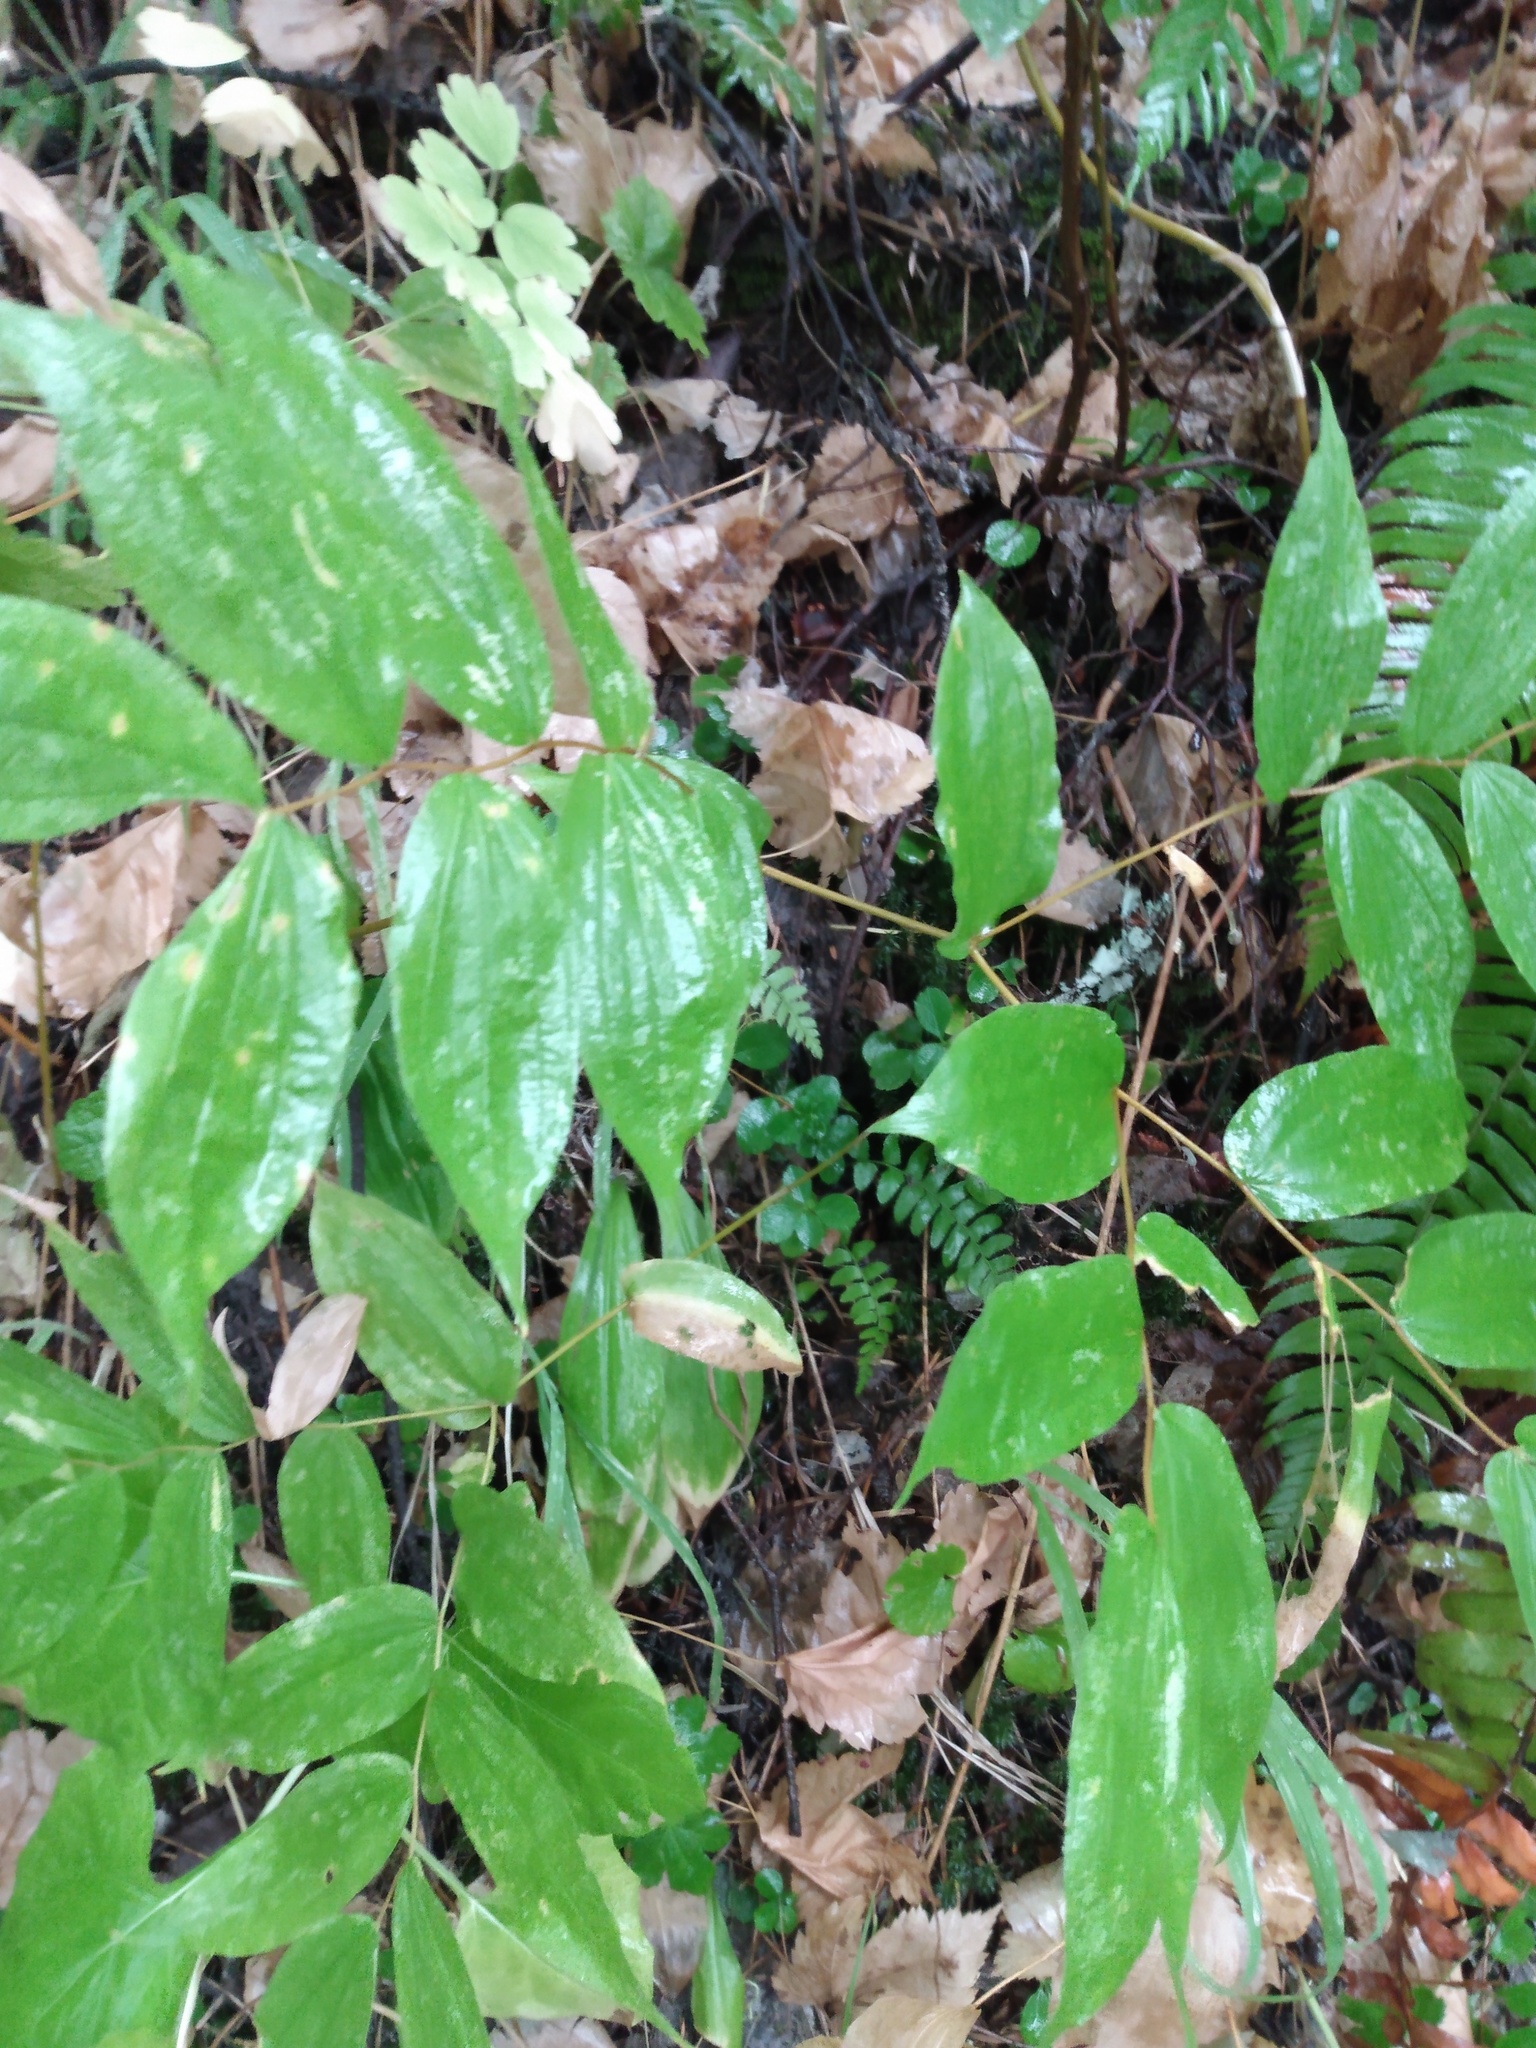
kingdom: Plantae
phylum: Tracheophyta
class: Liliopsida
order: Liliales
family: Liliaceae
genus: Prosartes
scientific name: Prosartes hookeri
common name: Fairy-bells
